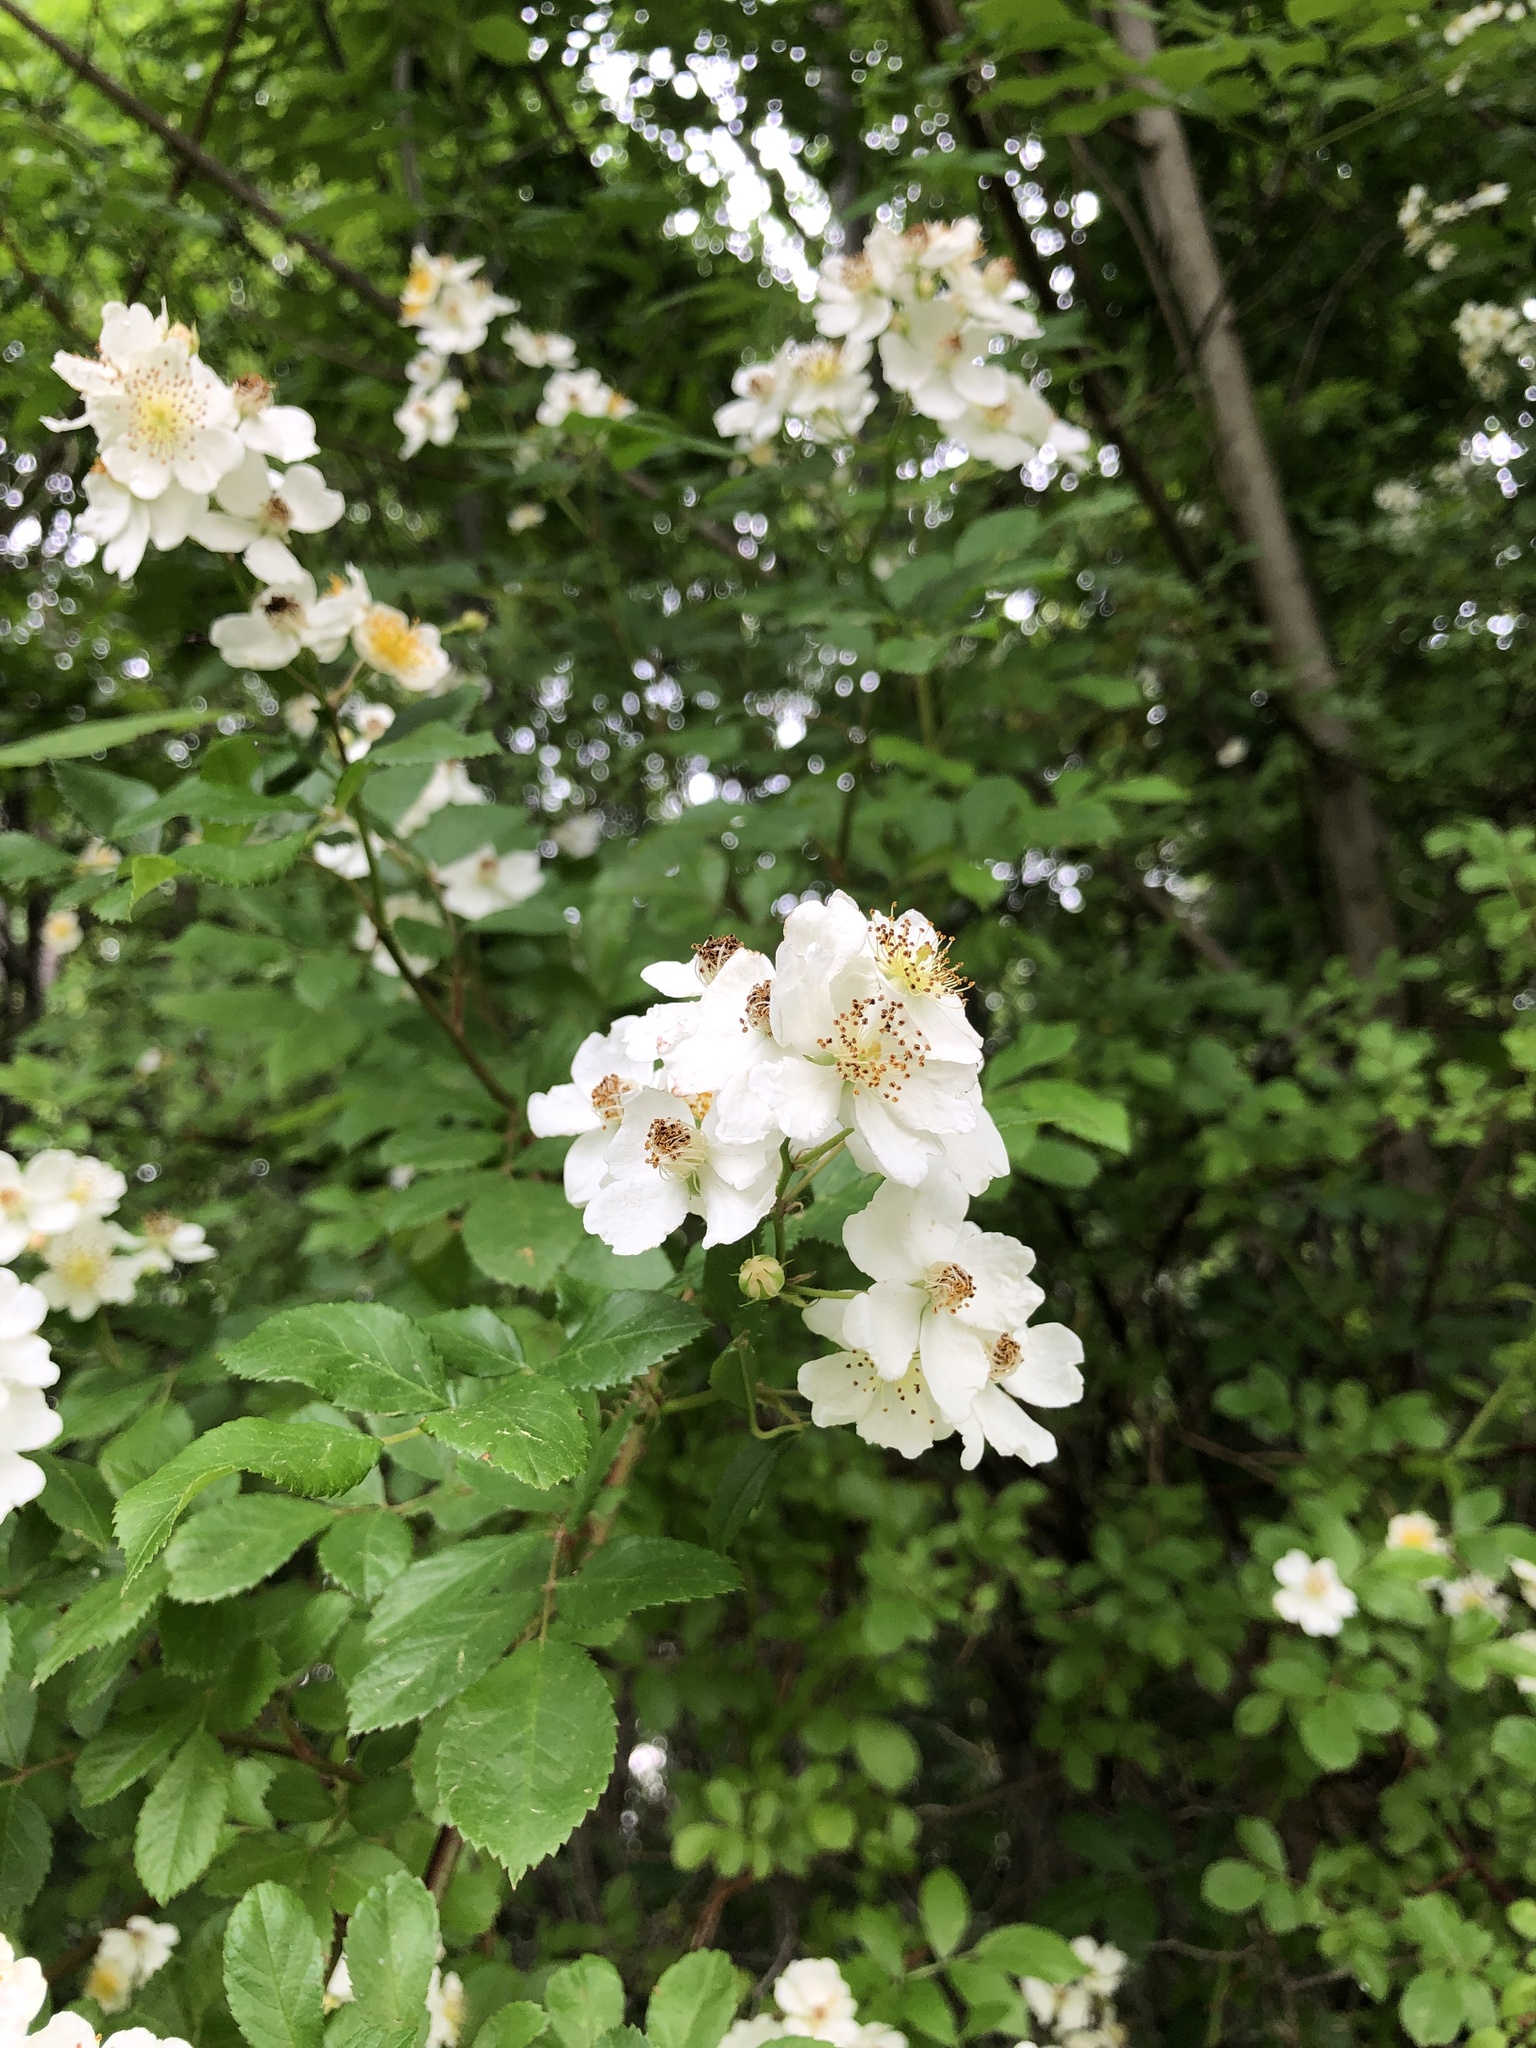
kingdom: Plantae
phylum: Tracheophyta
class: Magnoliopsida
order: Rosales
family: Rosaceae
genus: Rosa
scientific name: Rosa multiflora
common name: Multiflora rose
